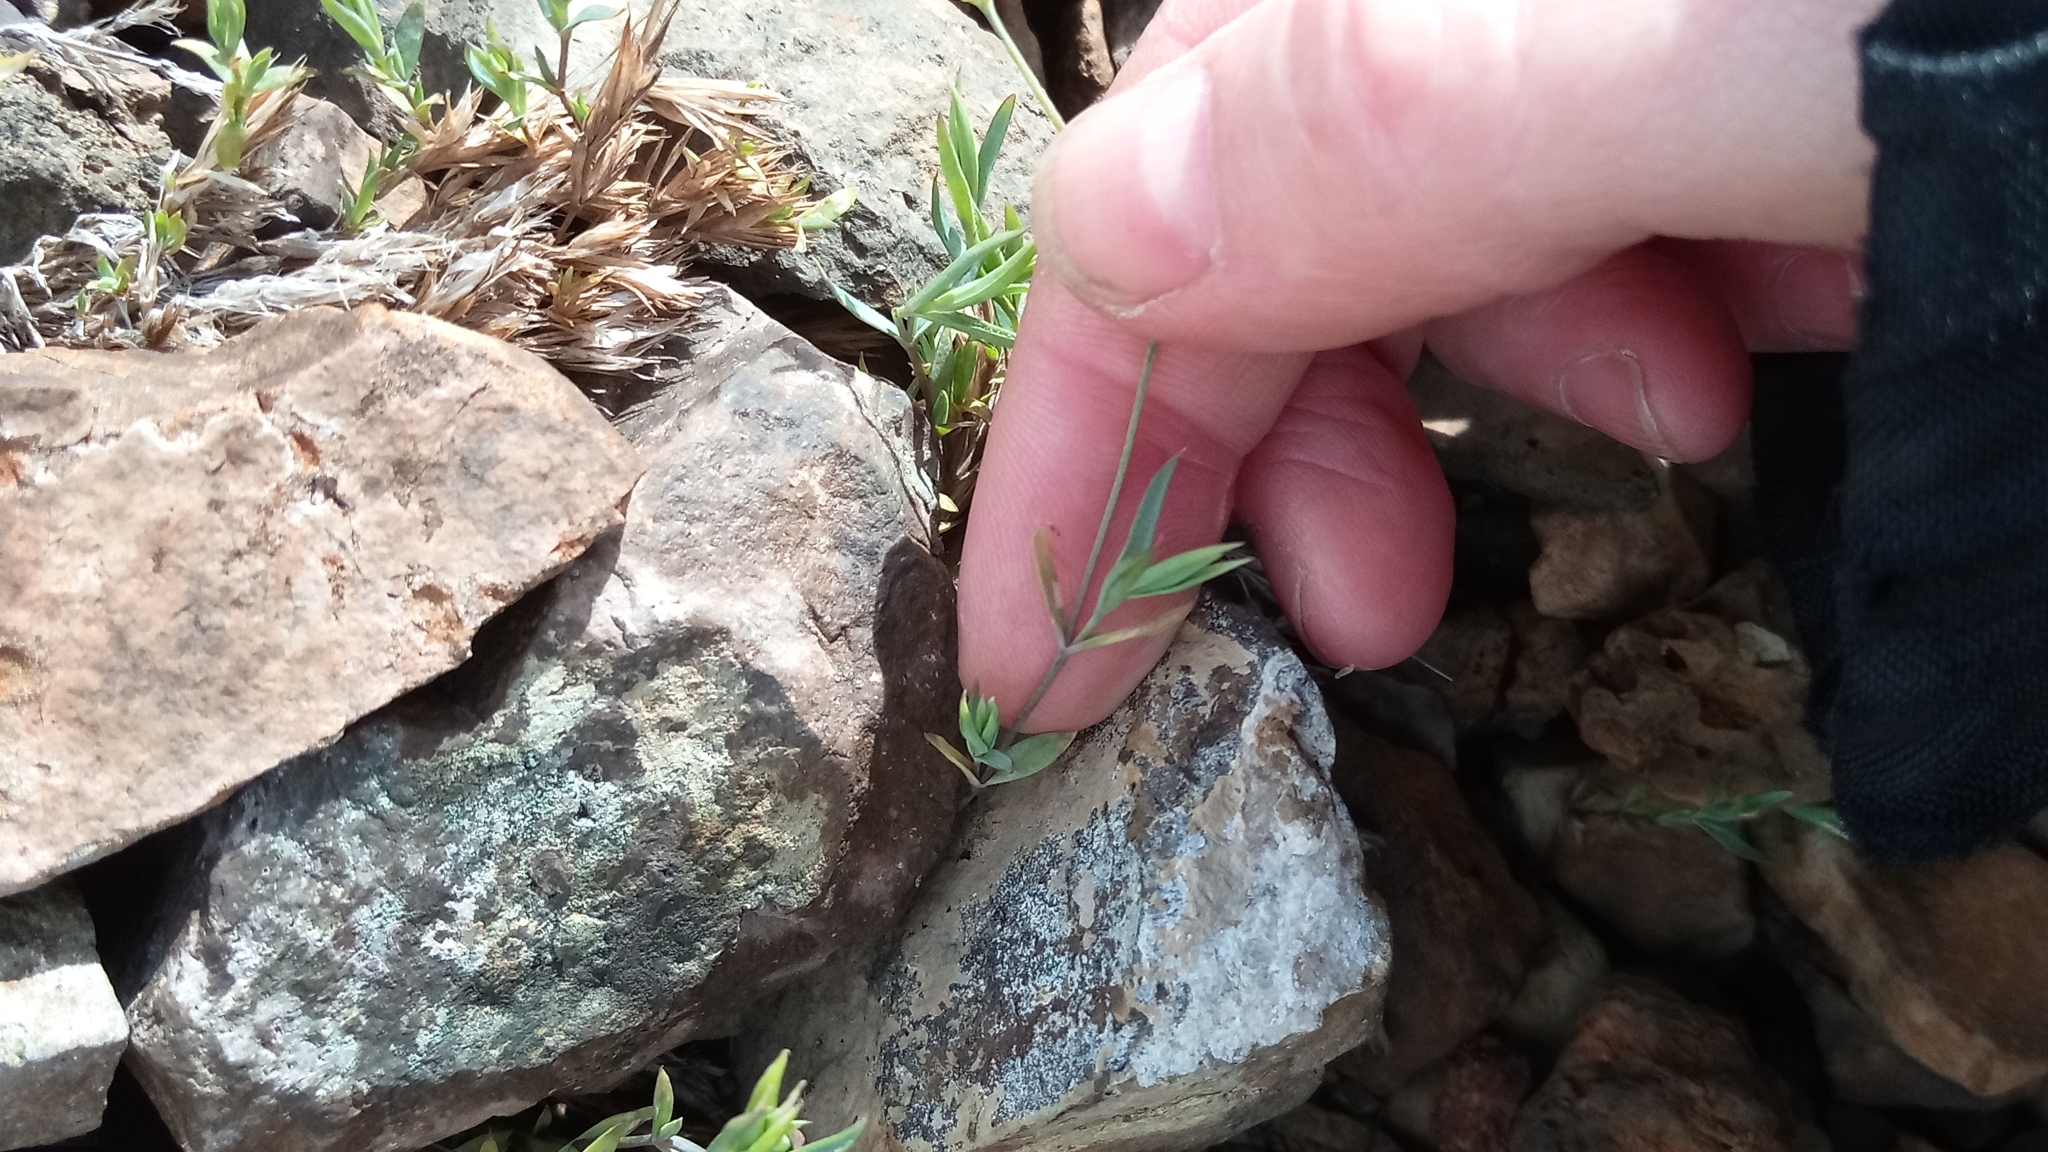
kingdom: Plantae
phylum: Tracheophyta
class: Magnoliopsida
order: Caryophyllales
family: Caryophyllaceae
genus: Stellaria
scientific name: Stellaria fischeriana
